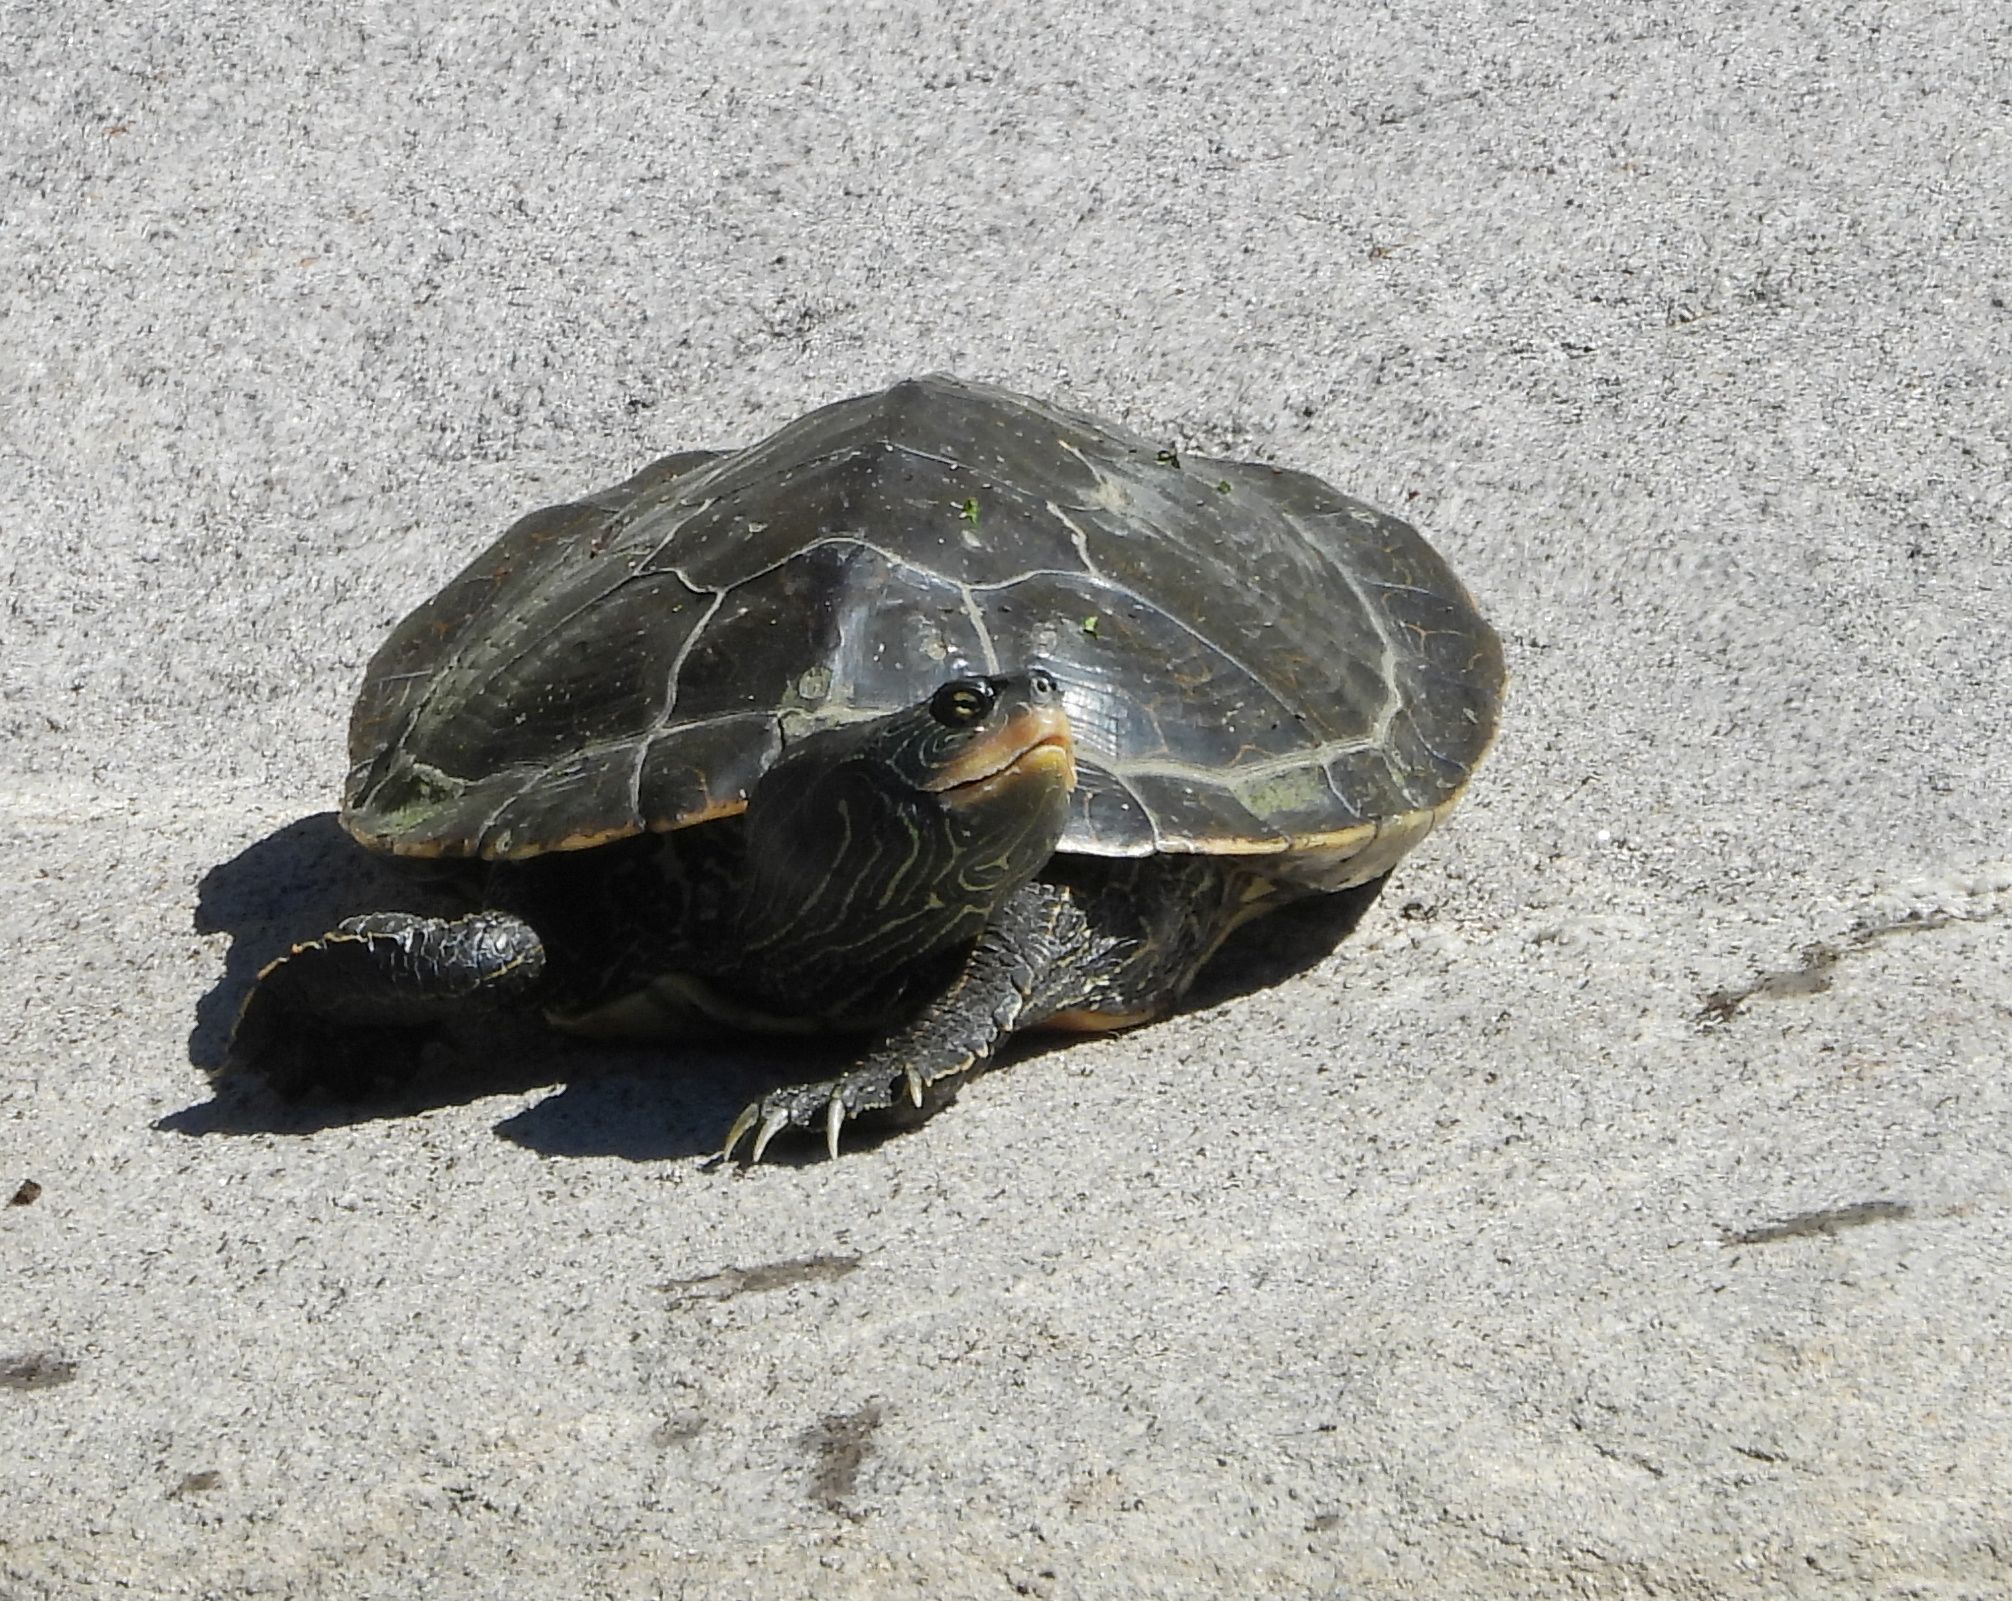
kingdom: Animalia
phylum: Chordata
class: Testudines
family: Emydidae
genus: Graptemys
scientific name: Graptemys geographica
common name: Common map turtle
